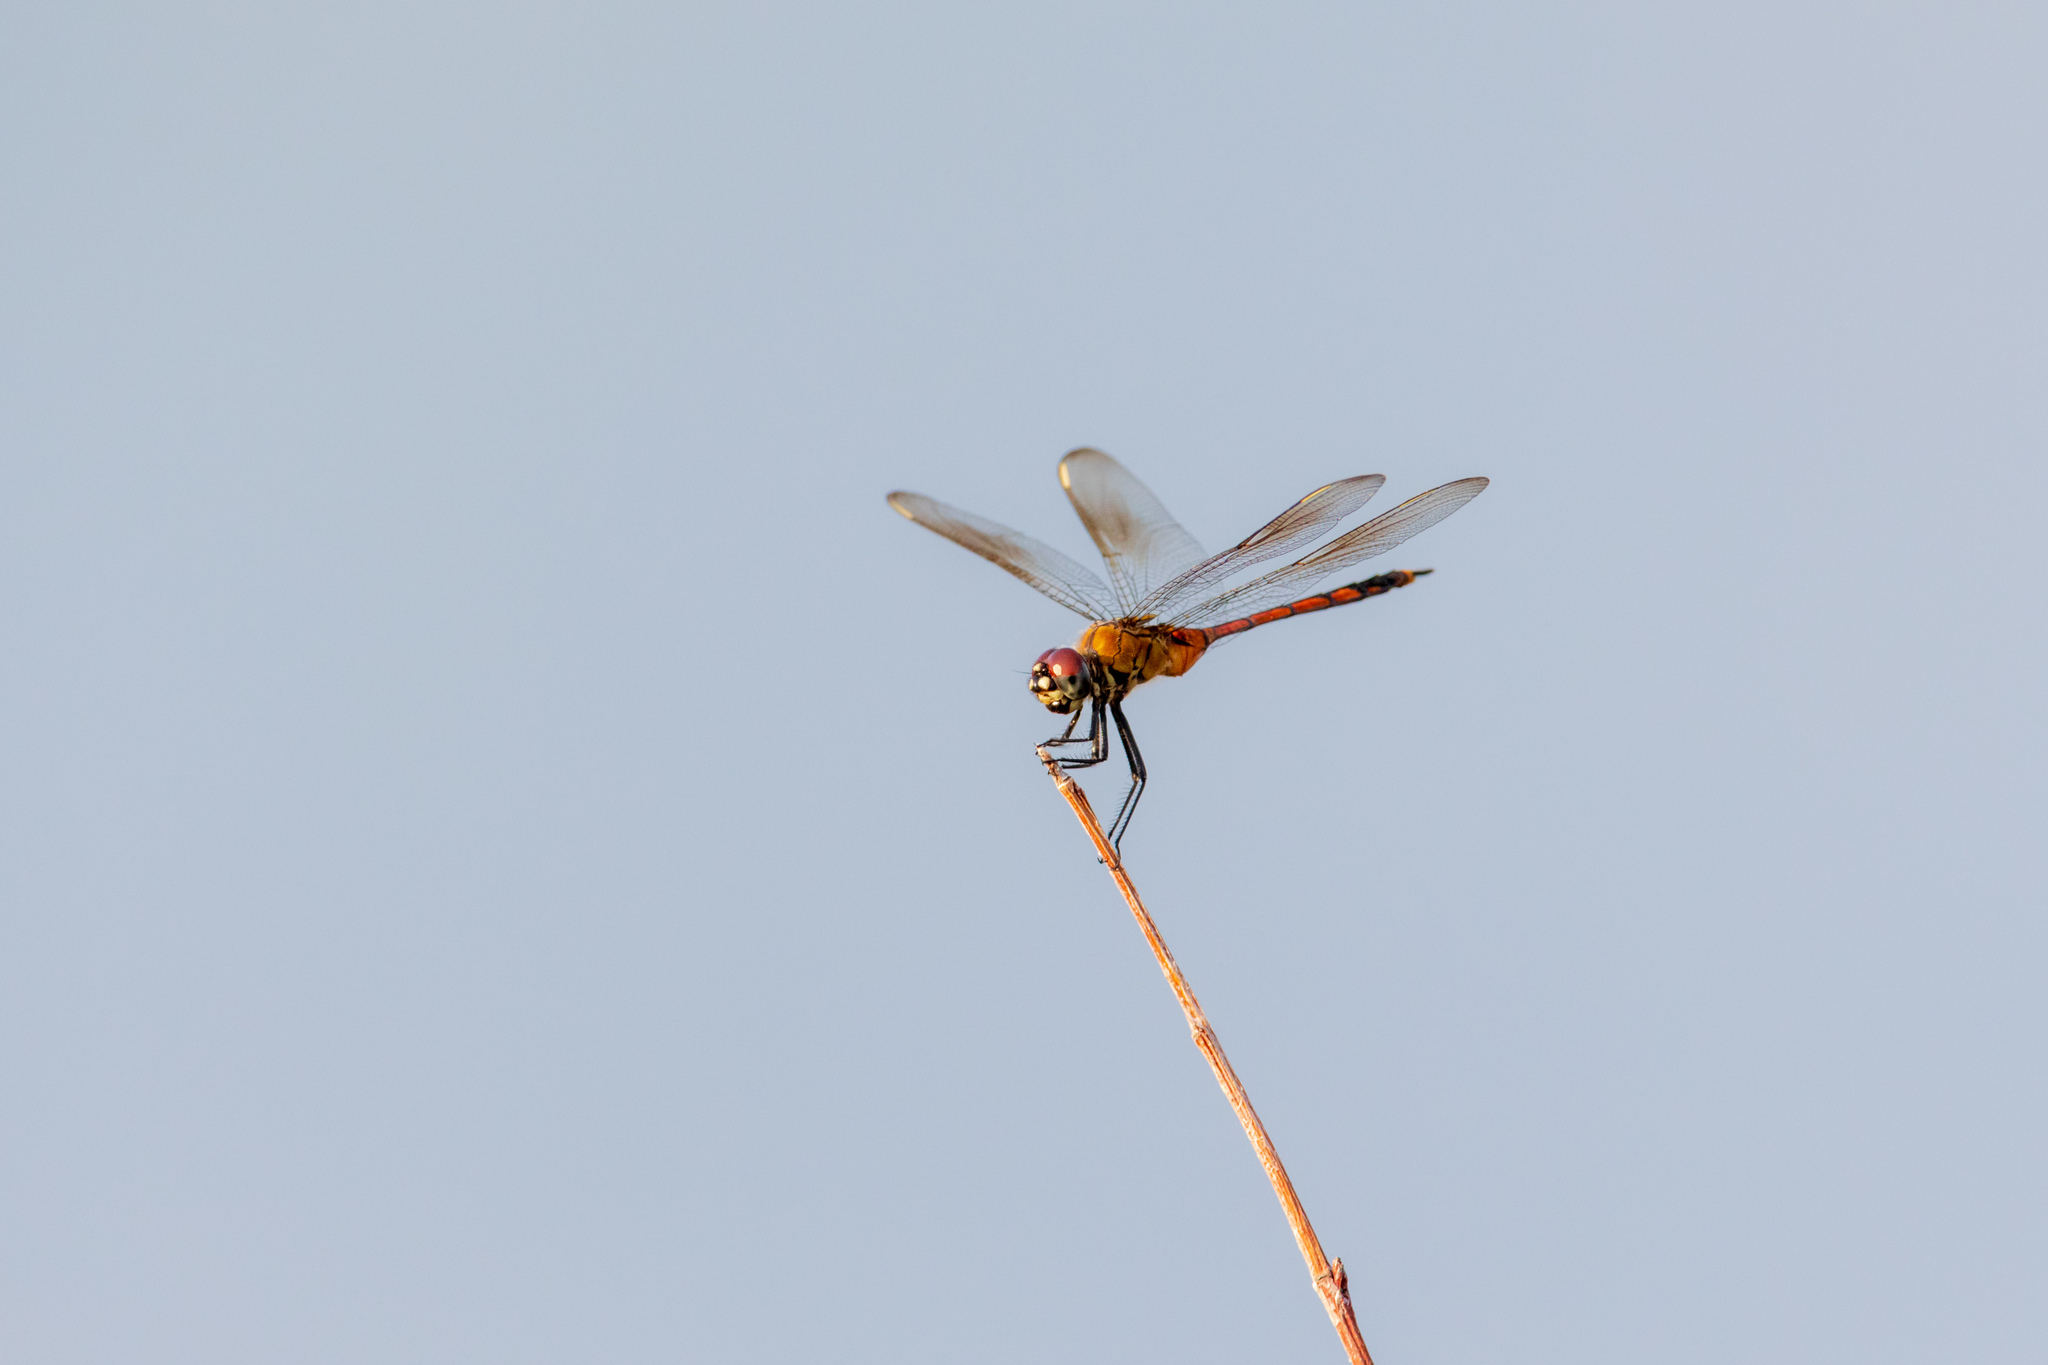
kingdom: Animalia
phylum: Arthropoda
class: Insecta
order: Odonata
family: Libellulidae
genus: Brachymesia
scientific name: Brachymesia gravida
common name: Four-spotted pennant
